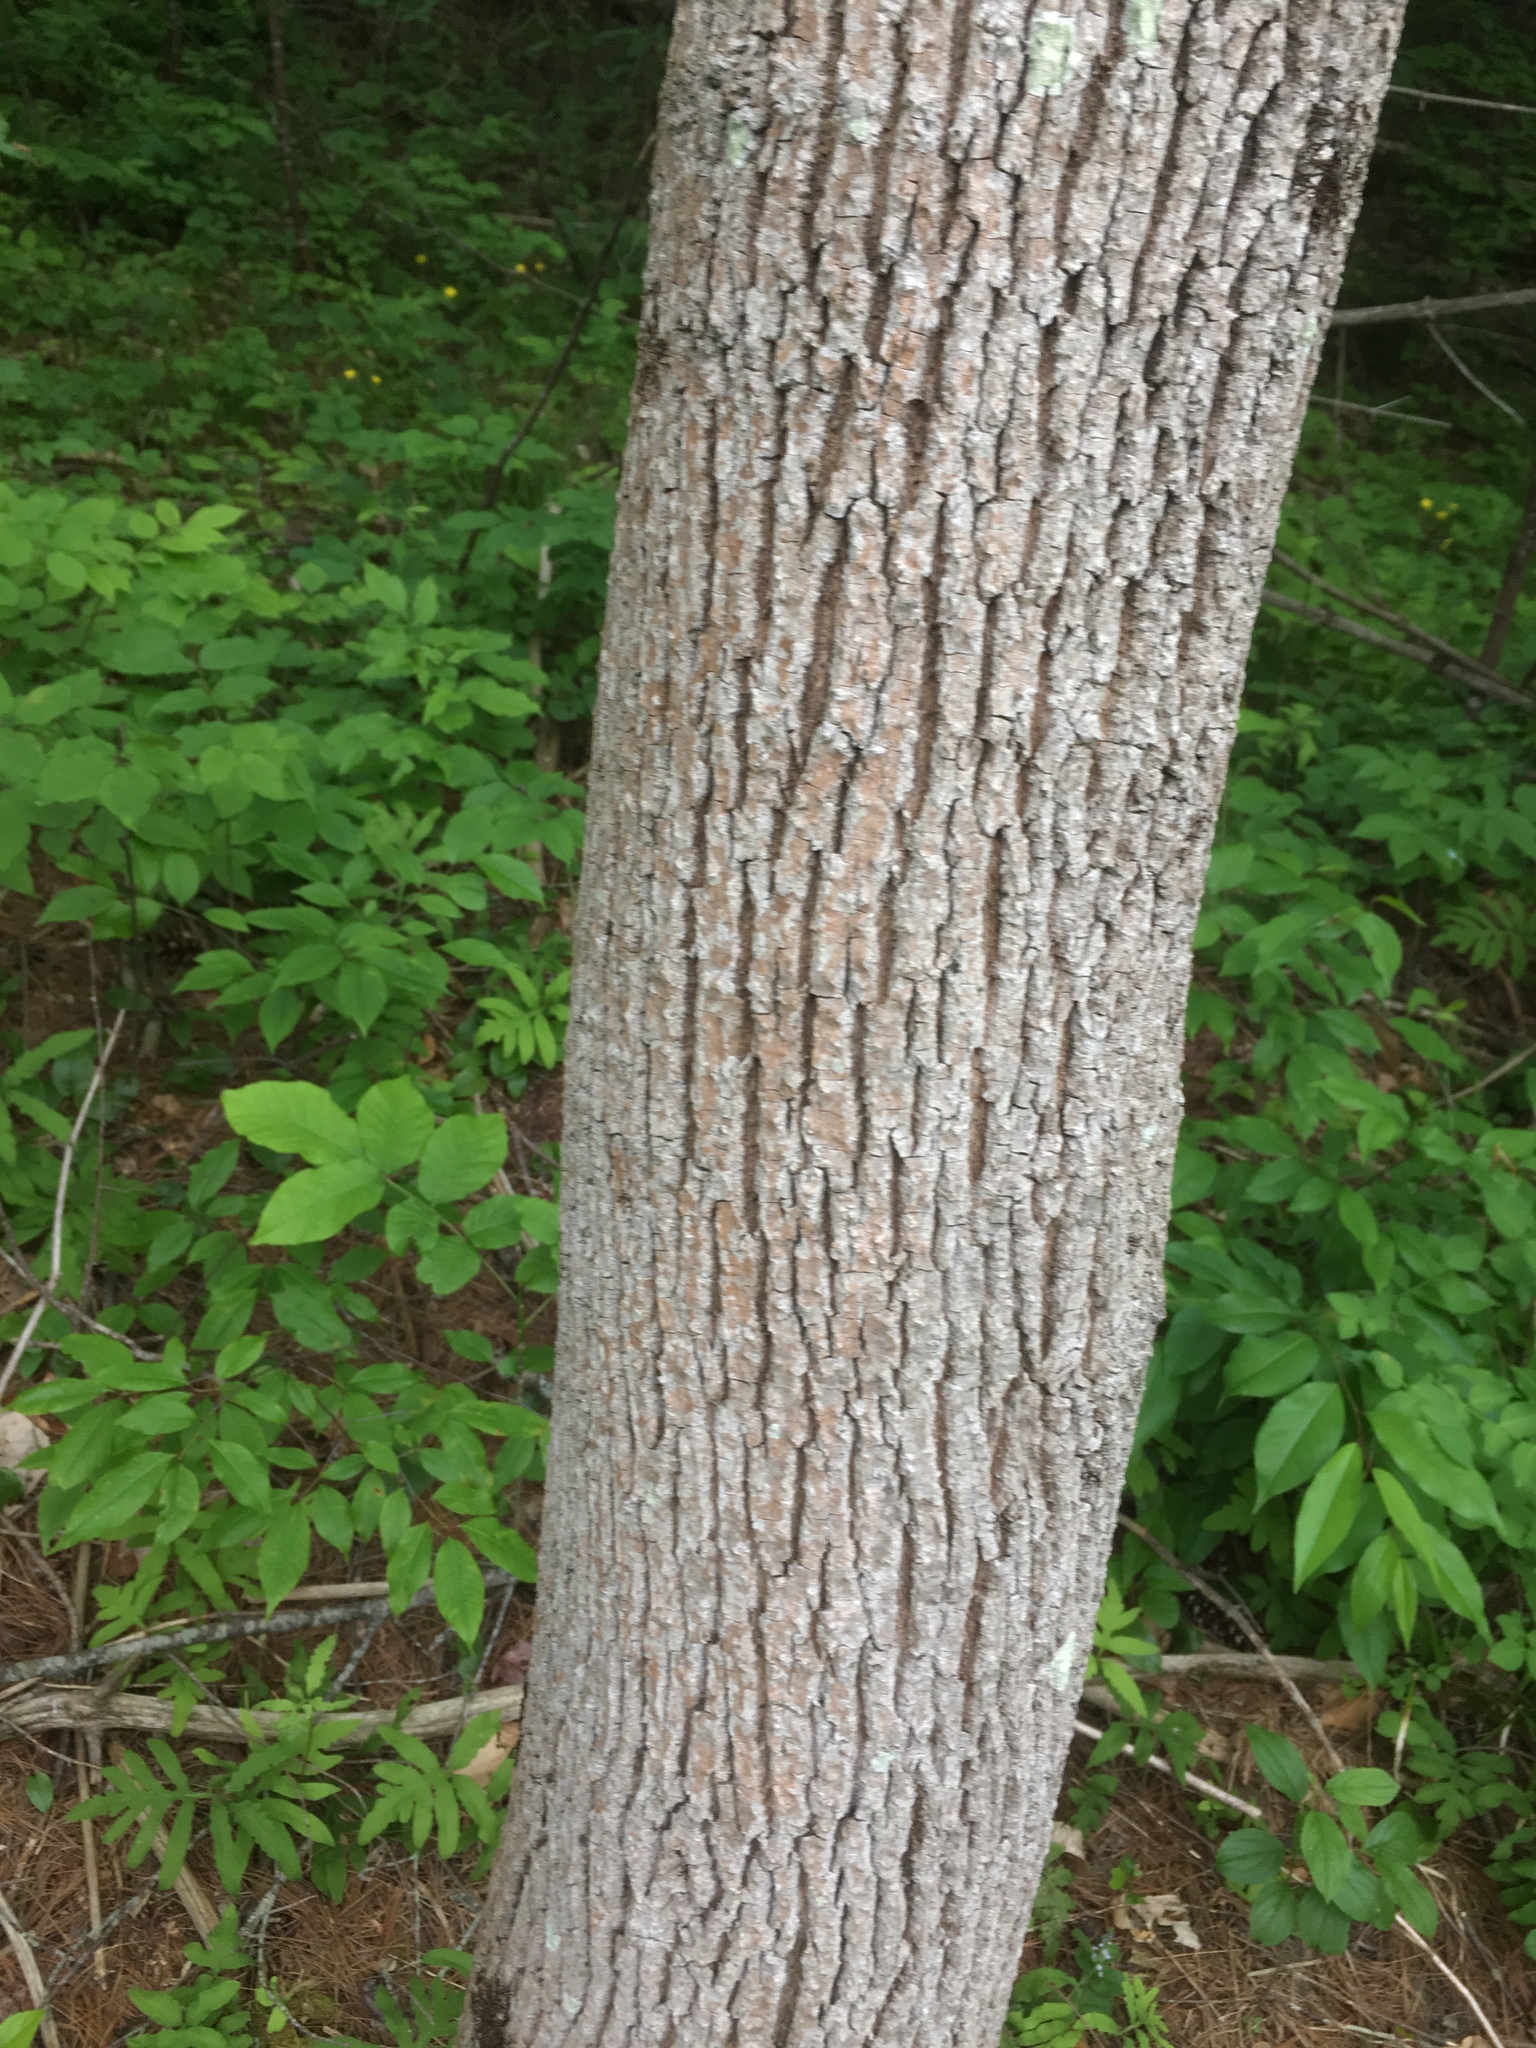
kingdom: Plantae
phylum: Tracheophyta
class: Magnoliopsida
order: Lamiales
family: Oleaceae
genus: Fraxinus
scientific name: Fraxinus pennsylvanica
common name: Green ash
